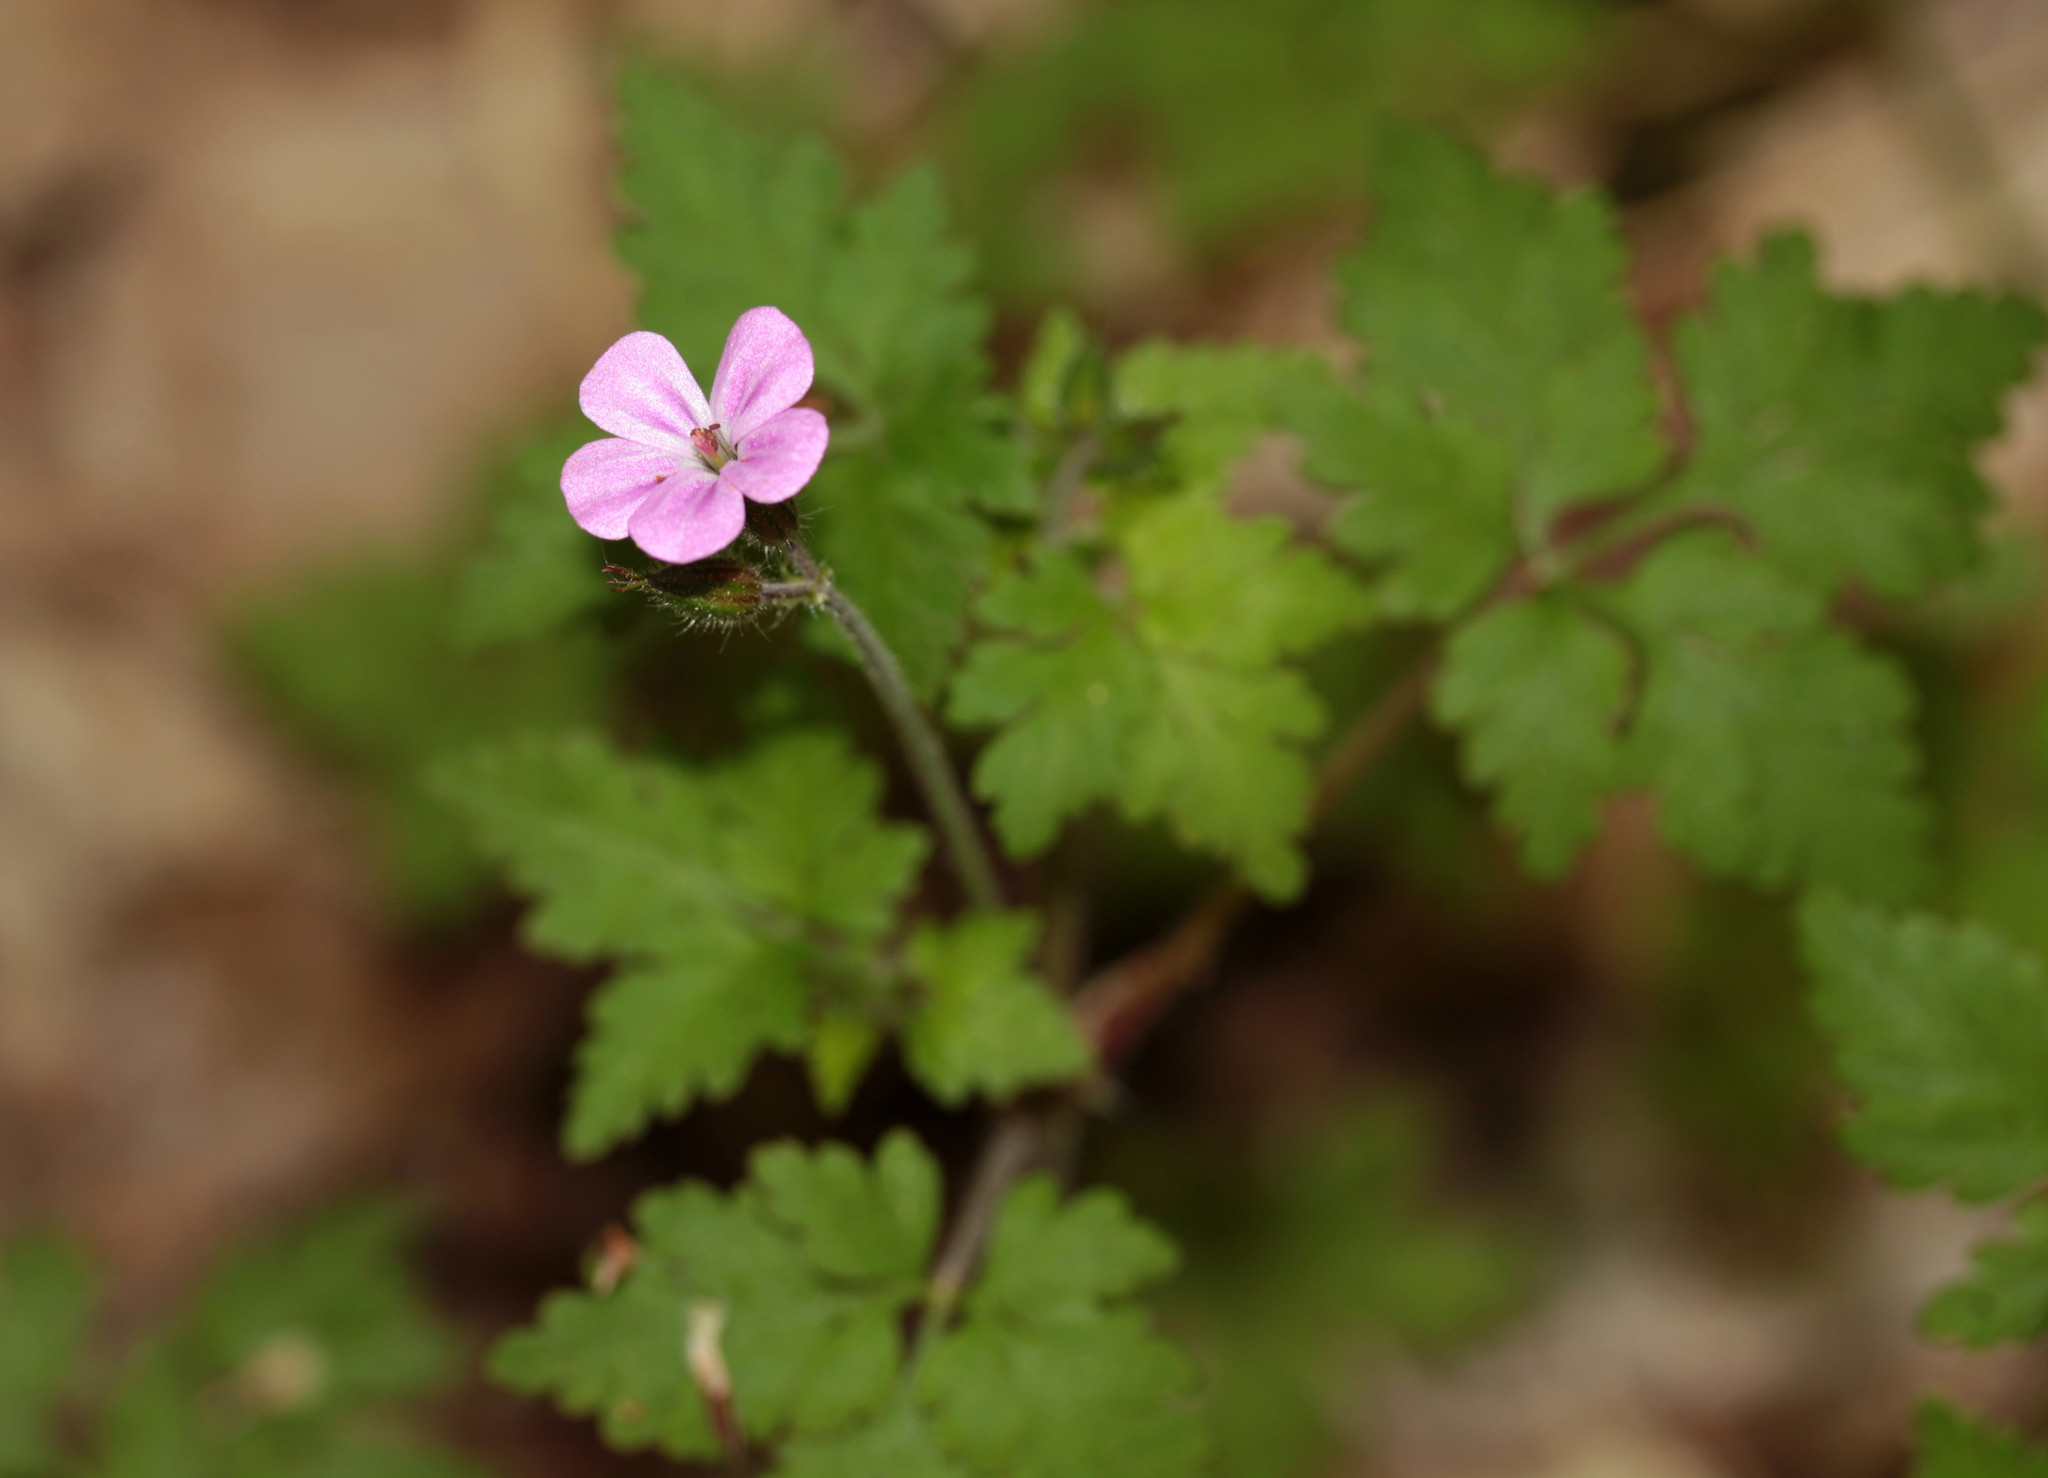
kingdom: Plantae
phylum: Tracheophyta
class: Magnoliopsida
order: Geraniales
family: Geraniaceae
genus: Geranium
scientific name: Geranium robertianum
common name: Herb-robert
